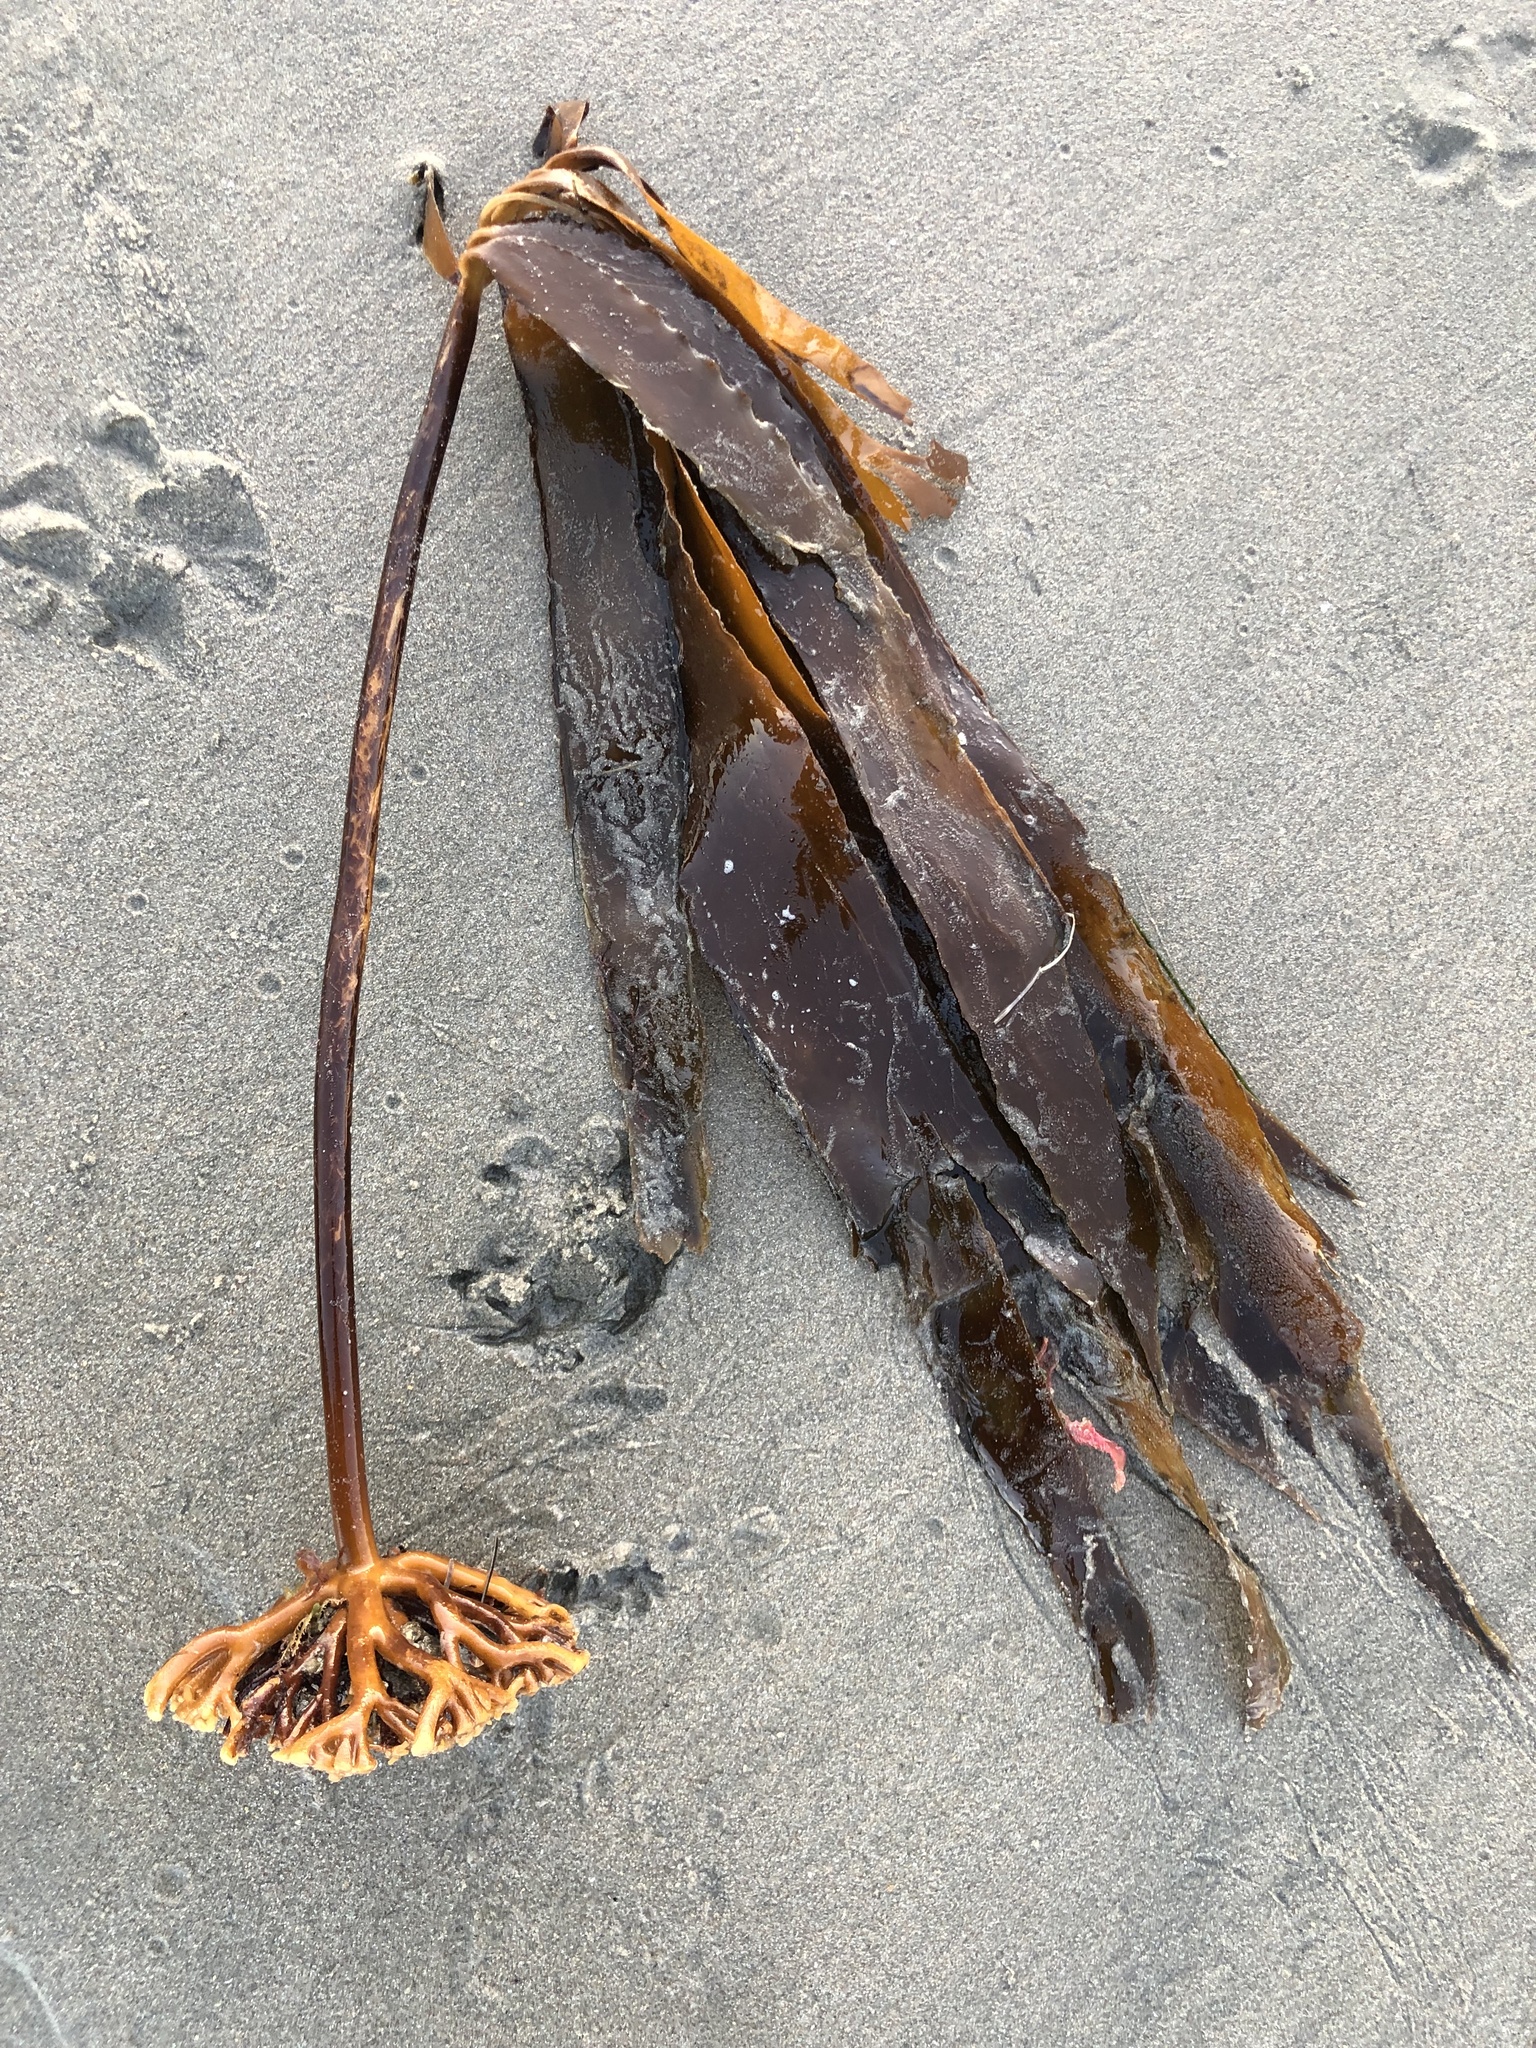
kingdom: Chromista
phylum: Ochrophyta
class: Phaeophyceae
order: Laminariales
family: Alariaceae
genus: Pterygophora
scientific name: Pterygophora californica
